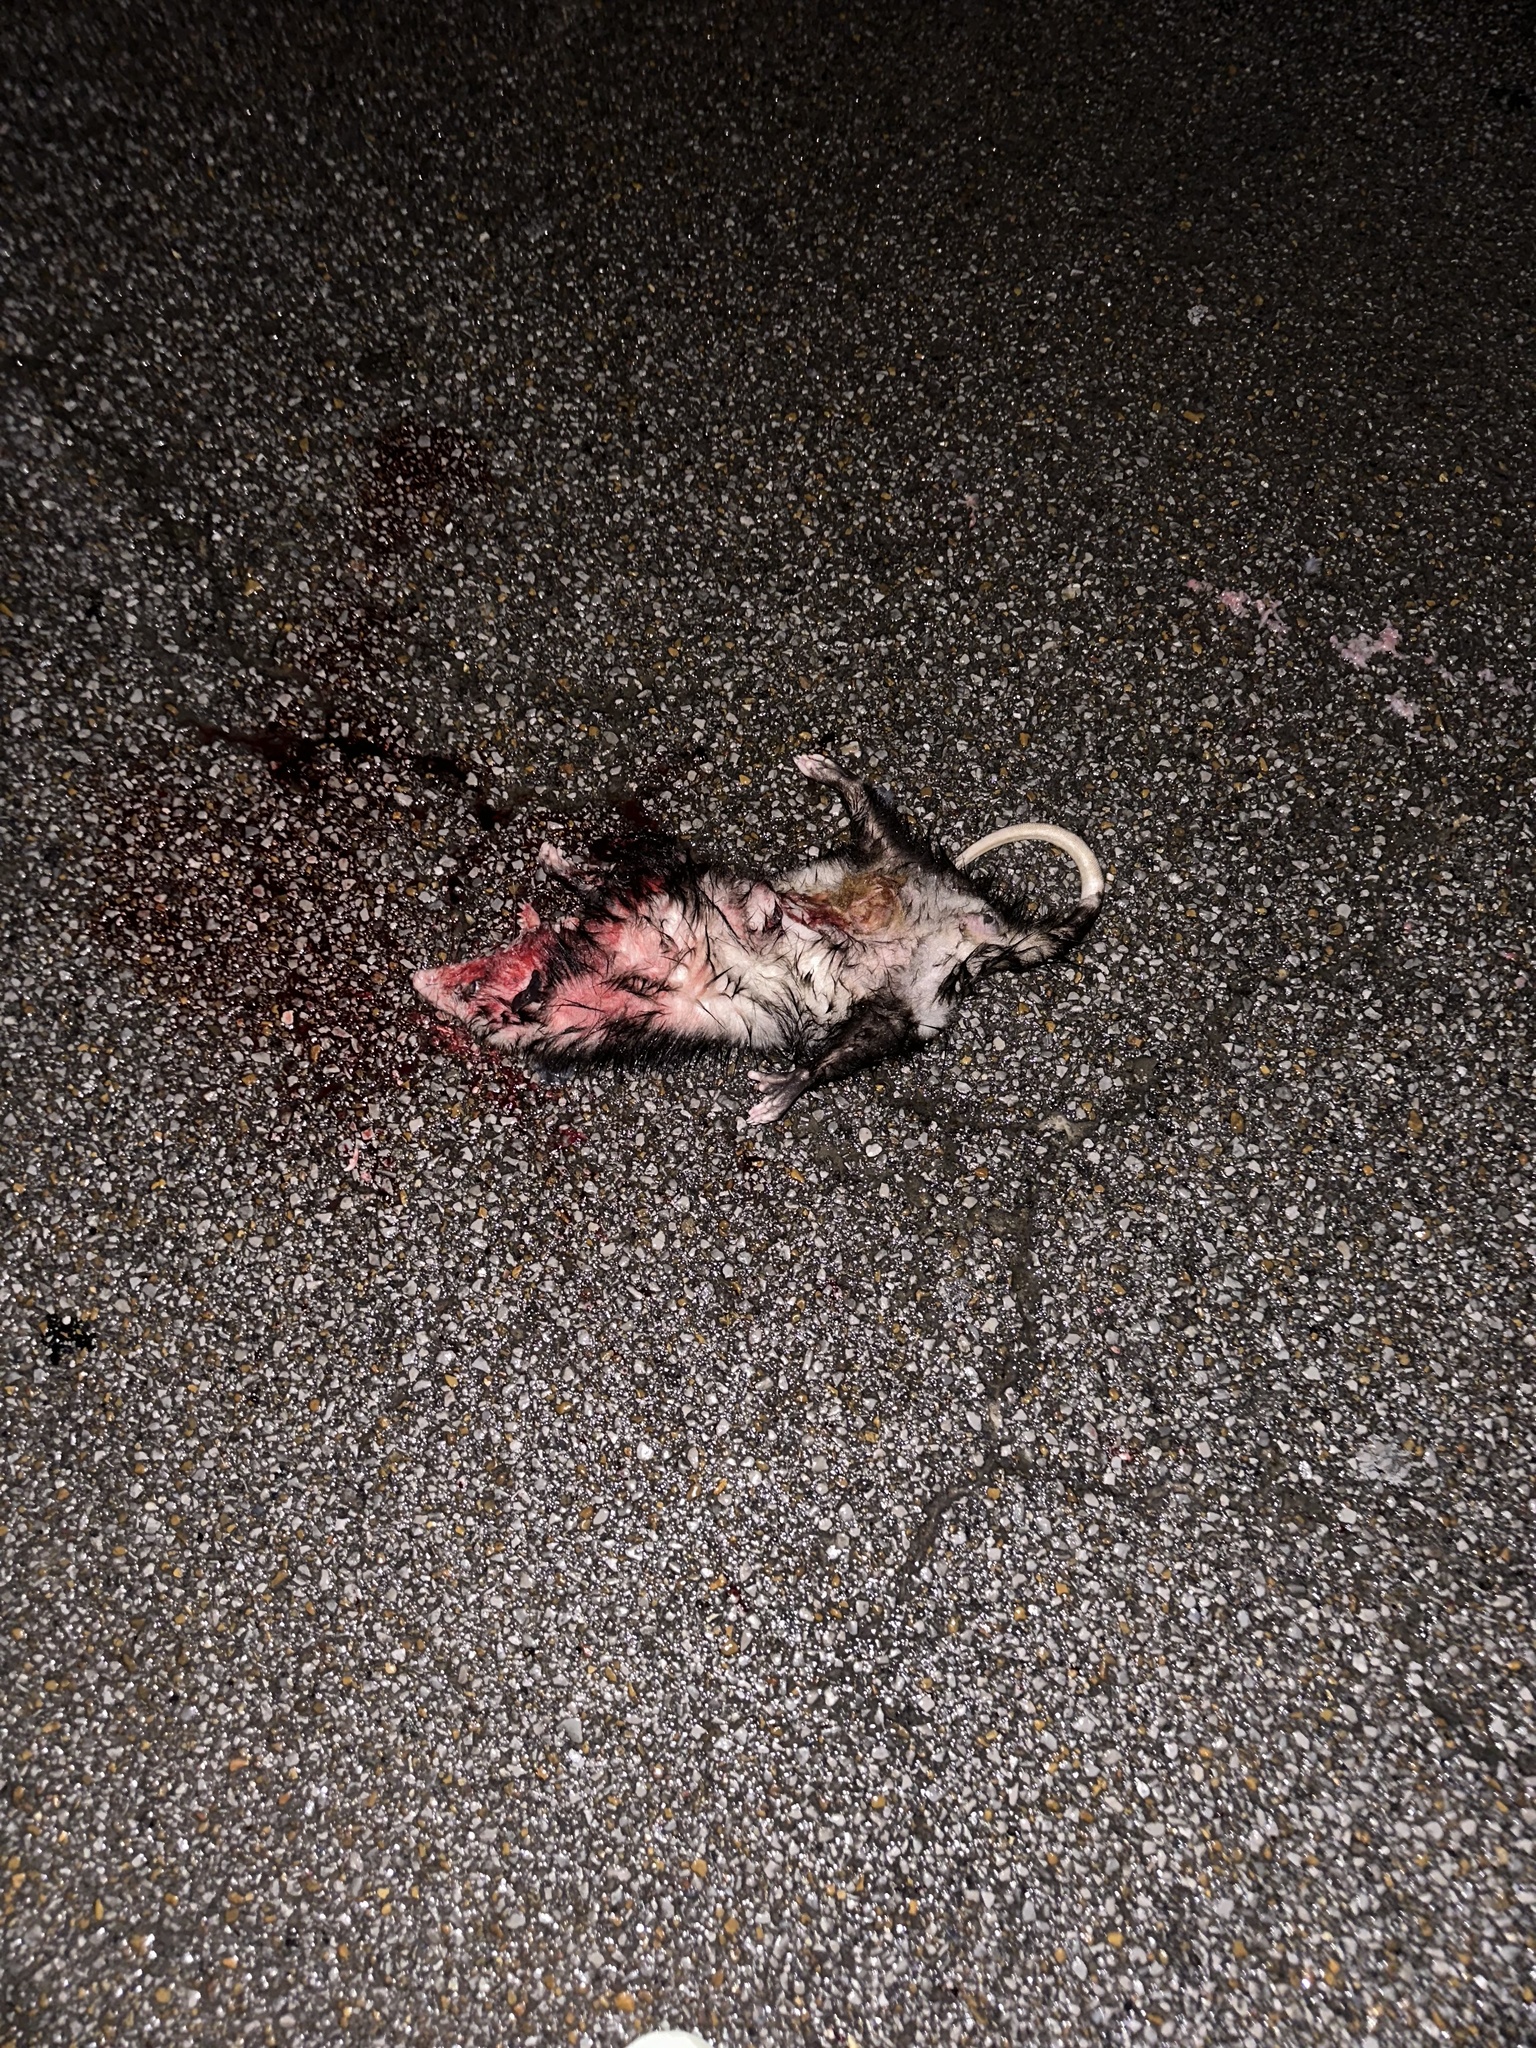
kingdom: Animalia
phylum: Chordata
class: Mammalia
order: Didelphimorphia
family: Didelphidae
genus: Didelphis
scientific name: Didelphis virginiana
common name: Virginia opossum
